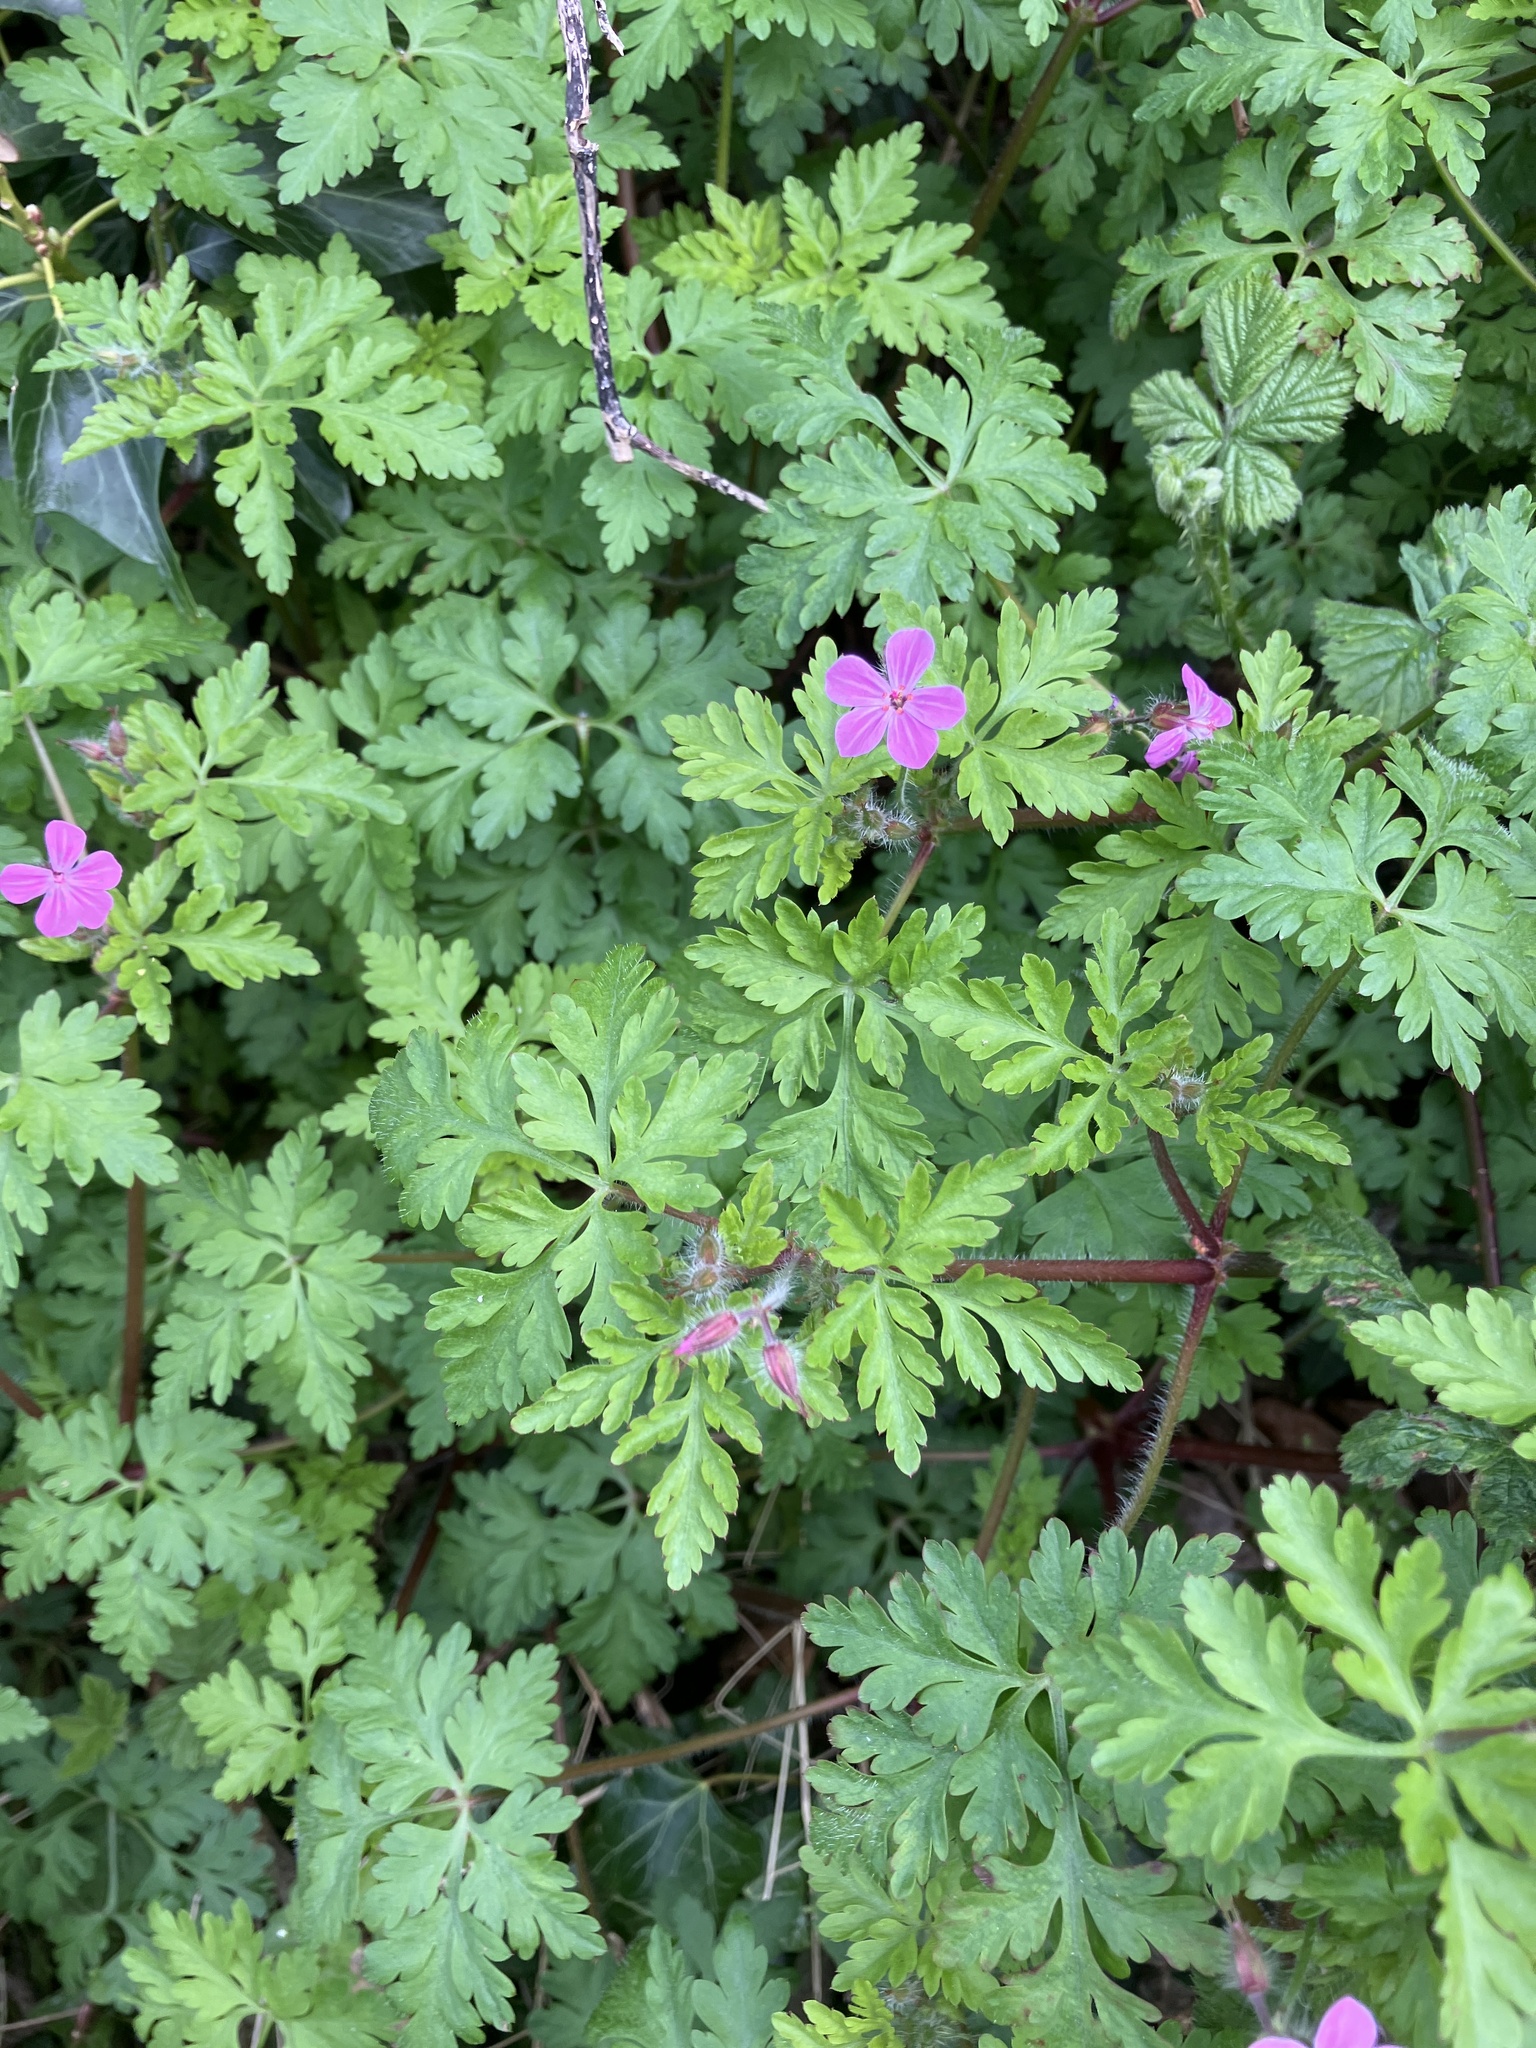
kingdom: Plantae
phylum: Tracheophyta
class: Magnoliopsida
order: Geraniales
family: Geraniaceae
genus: Geranium
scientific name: Geranium robertianum
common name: Herb-robert
